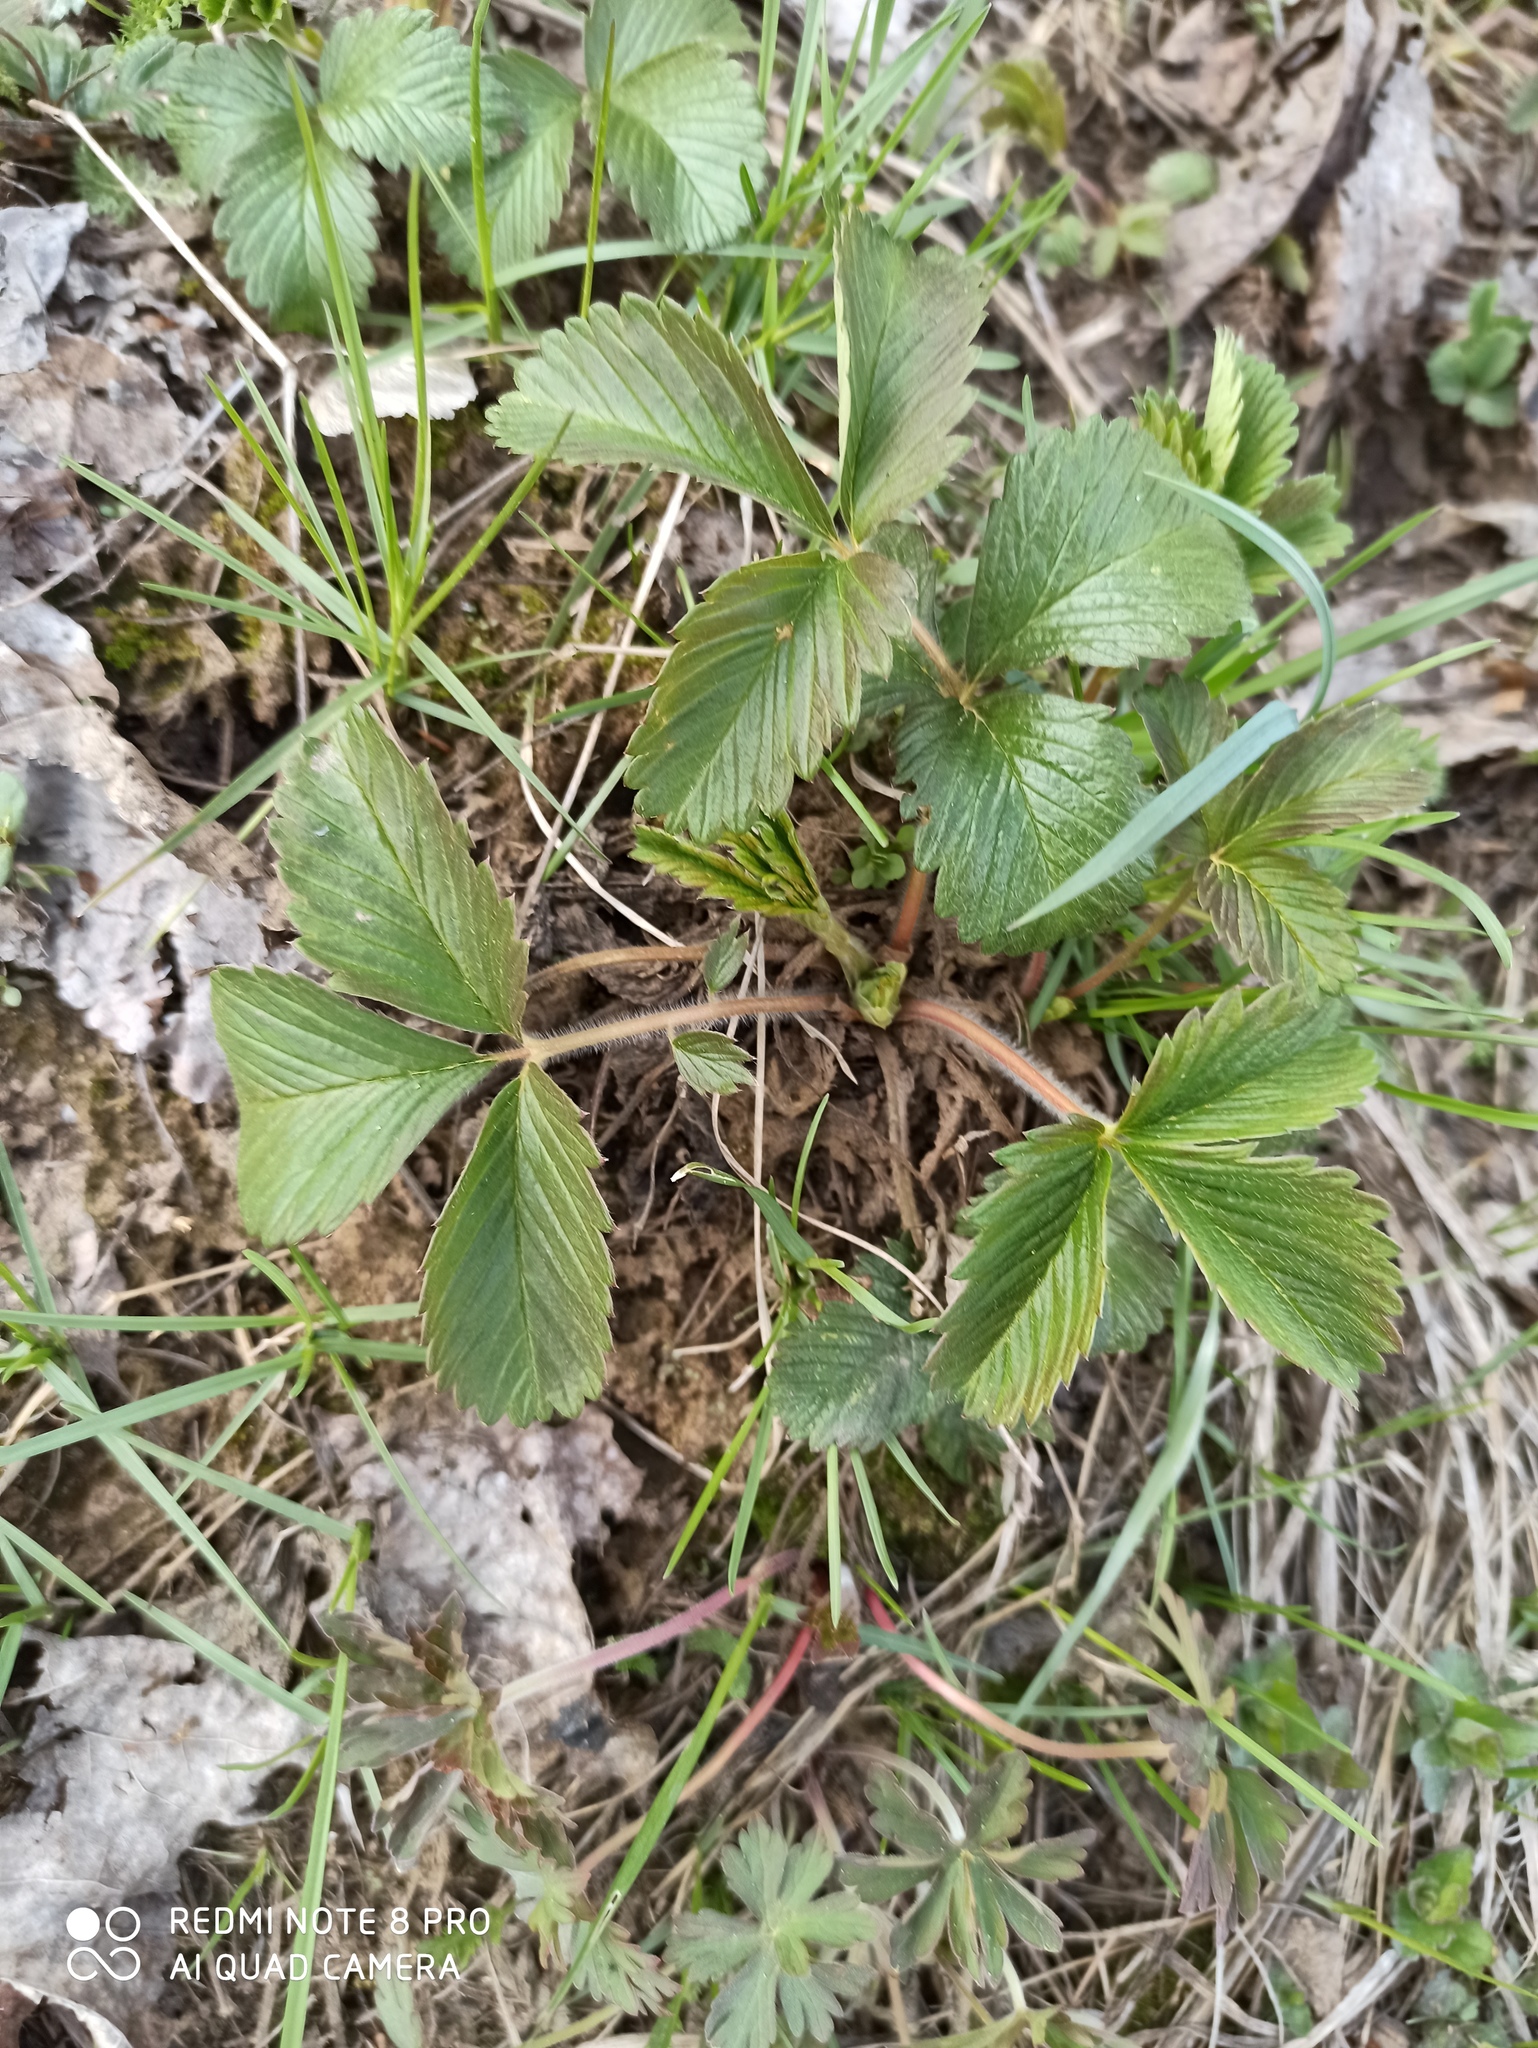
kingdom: Plantae
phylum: Tracheophyta
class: Magnoliopsida
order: Rosales
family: Rosaceae
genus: Fragaria
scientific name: Fragaria viridis
